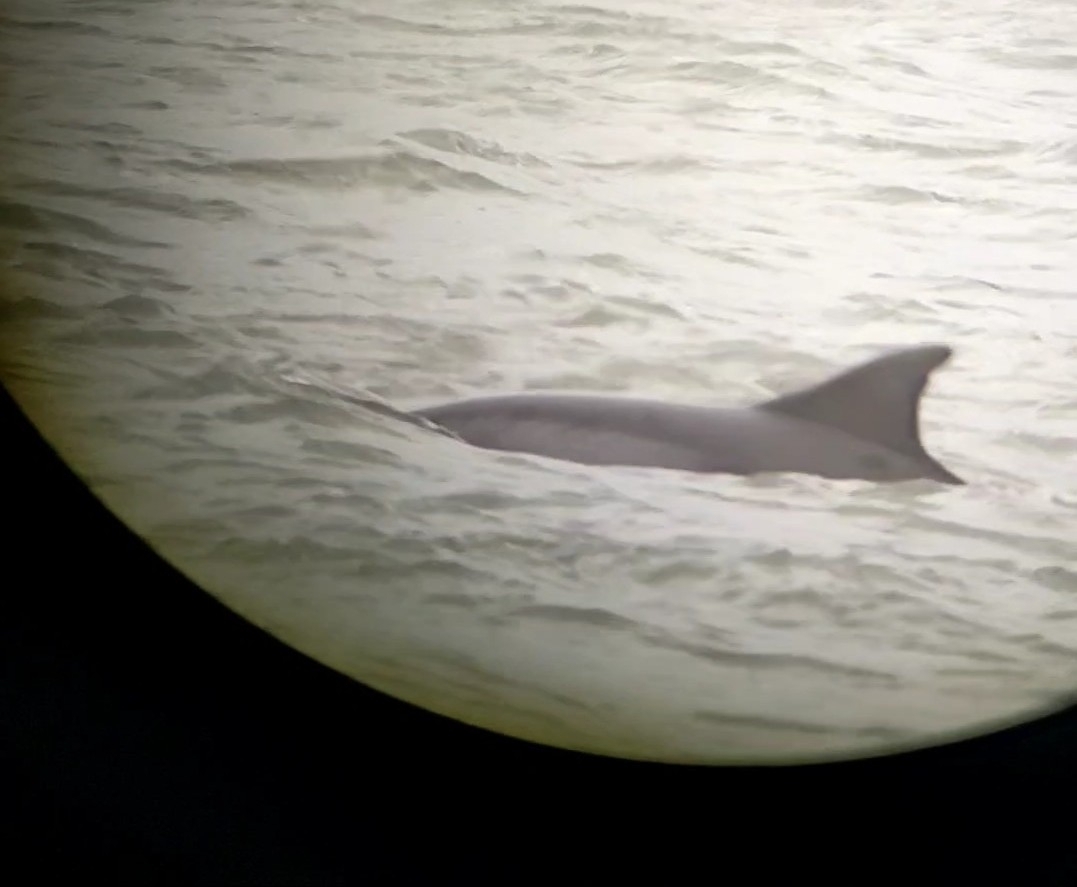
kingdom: Animalia
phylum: Chordata
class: Mammalia
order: Cetacea
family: Delphinidae
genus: Tursiops
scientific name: Tursiops truncatus
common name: Bottlenose dolphin
